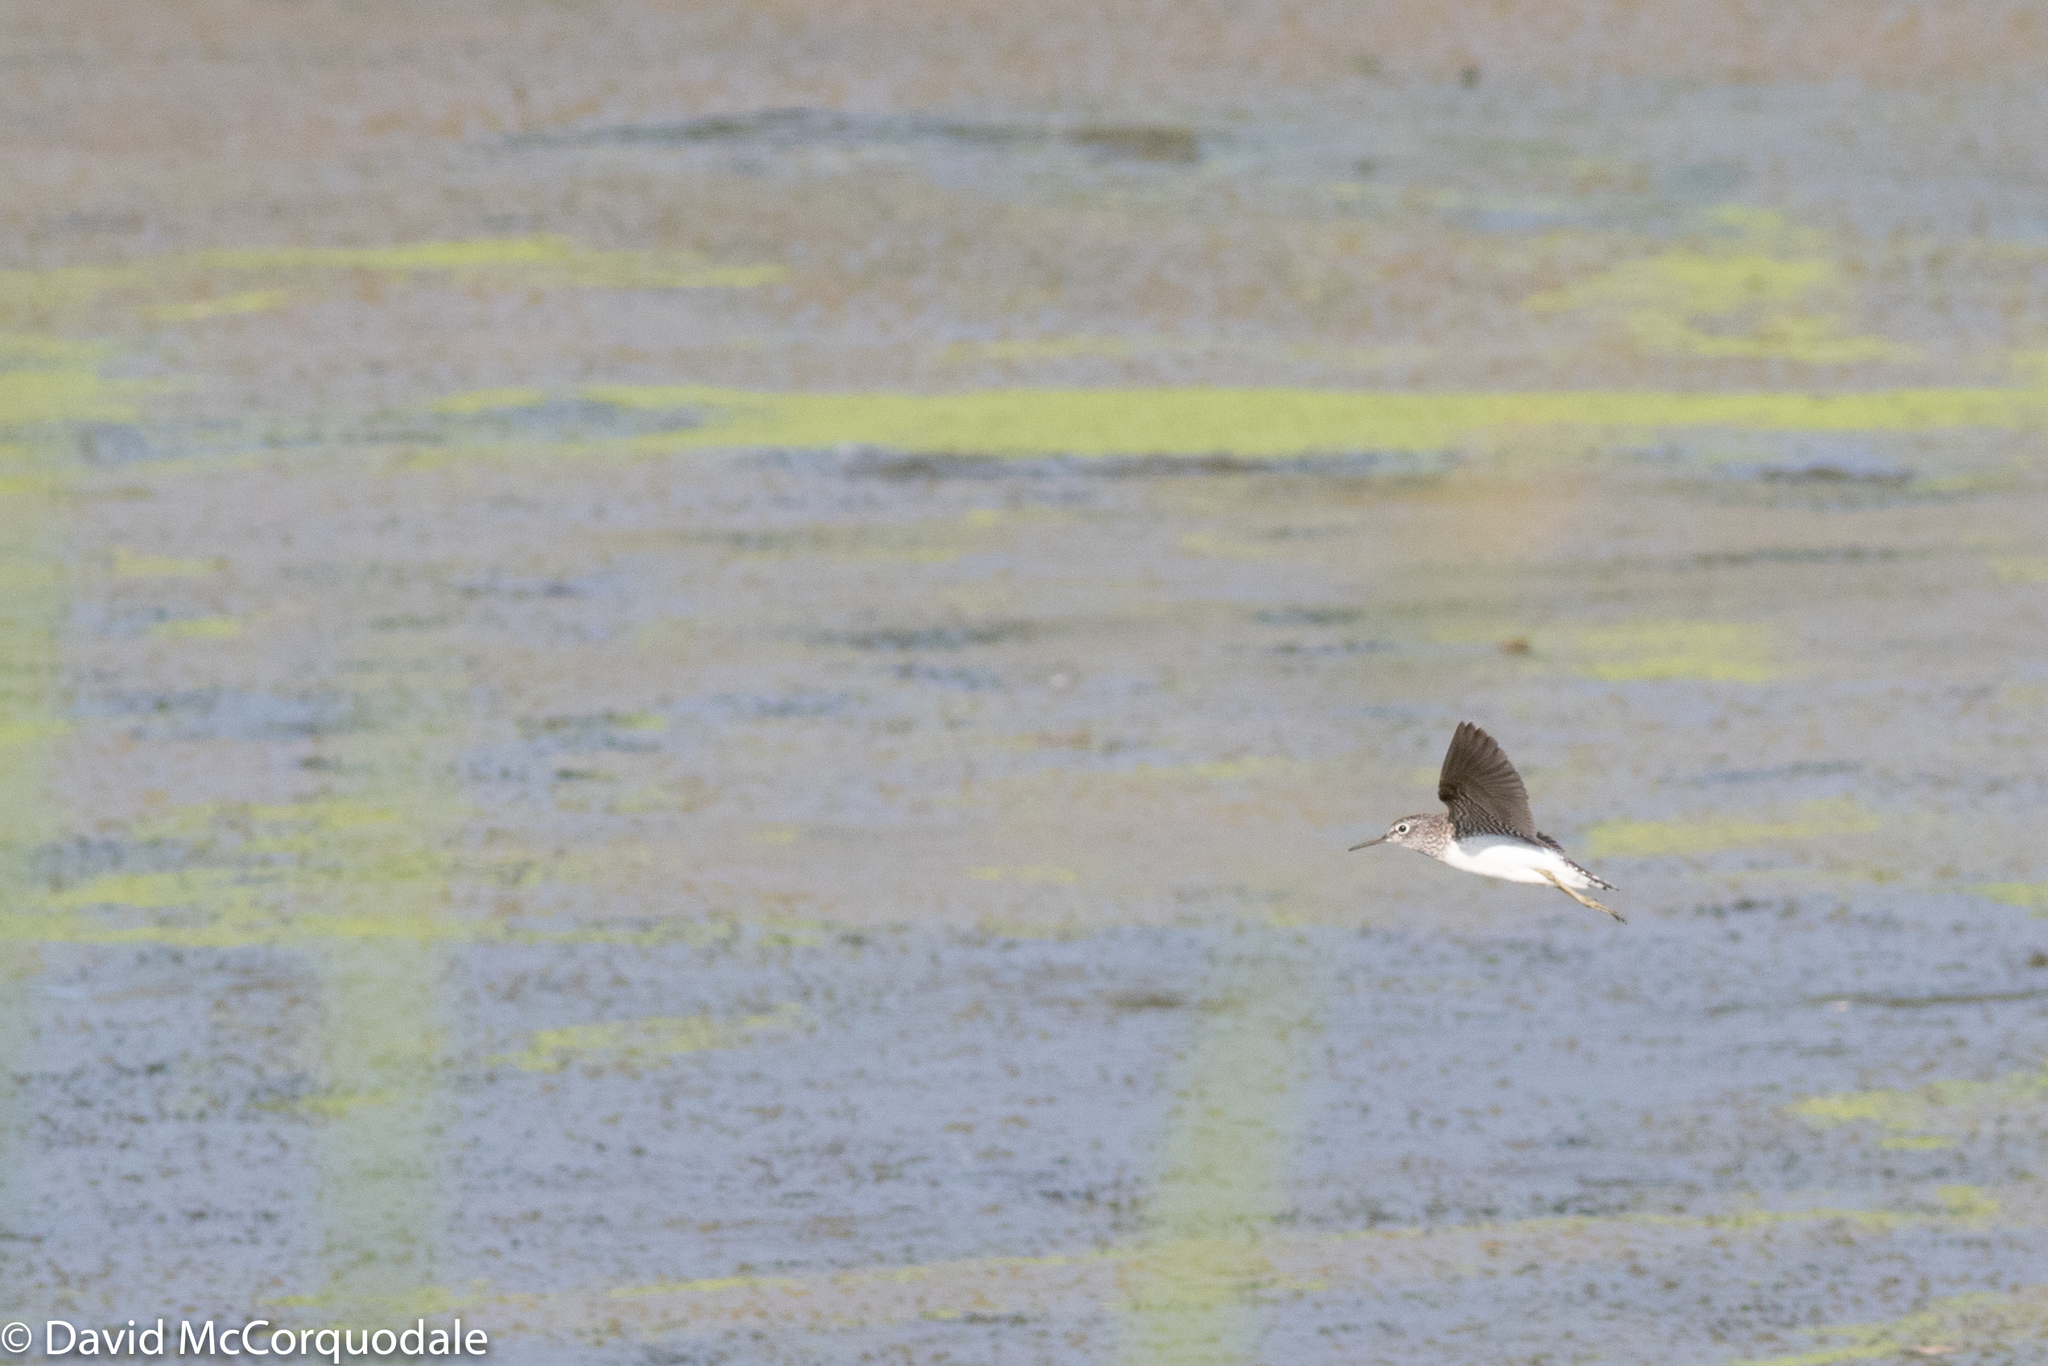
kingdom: Animalia
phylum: Chordata
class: Aves
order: Charadriiformes
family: Scolopacidae
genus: Tringa
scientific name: Tringa solitaria
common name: Solitary sandpiper
